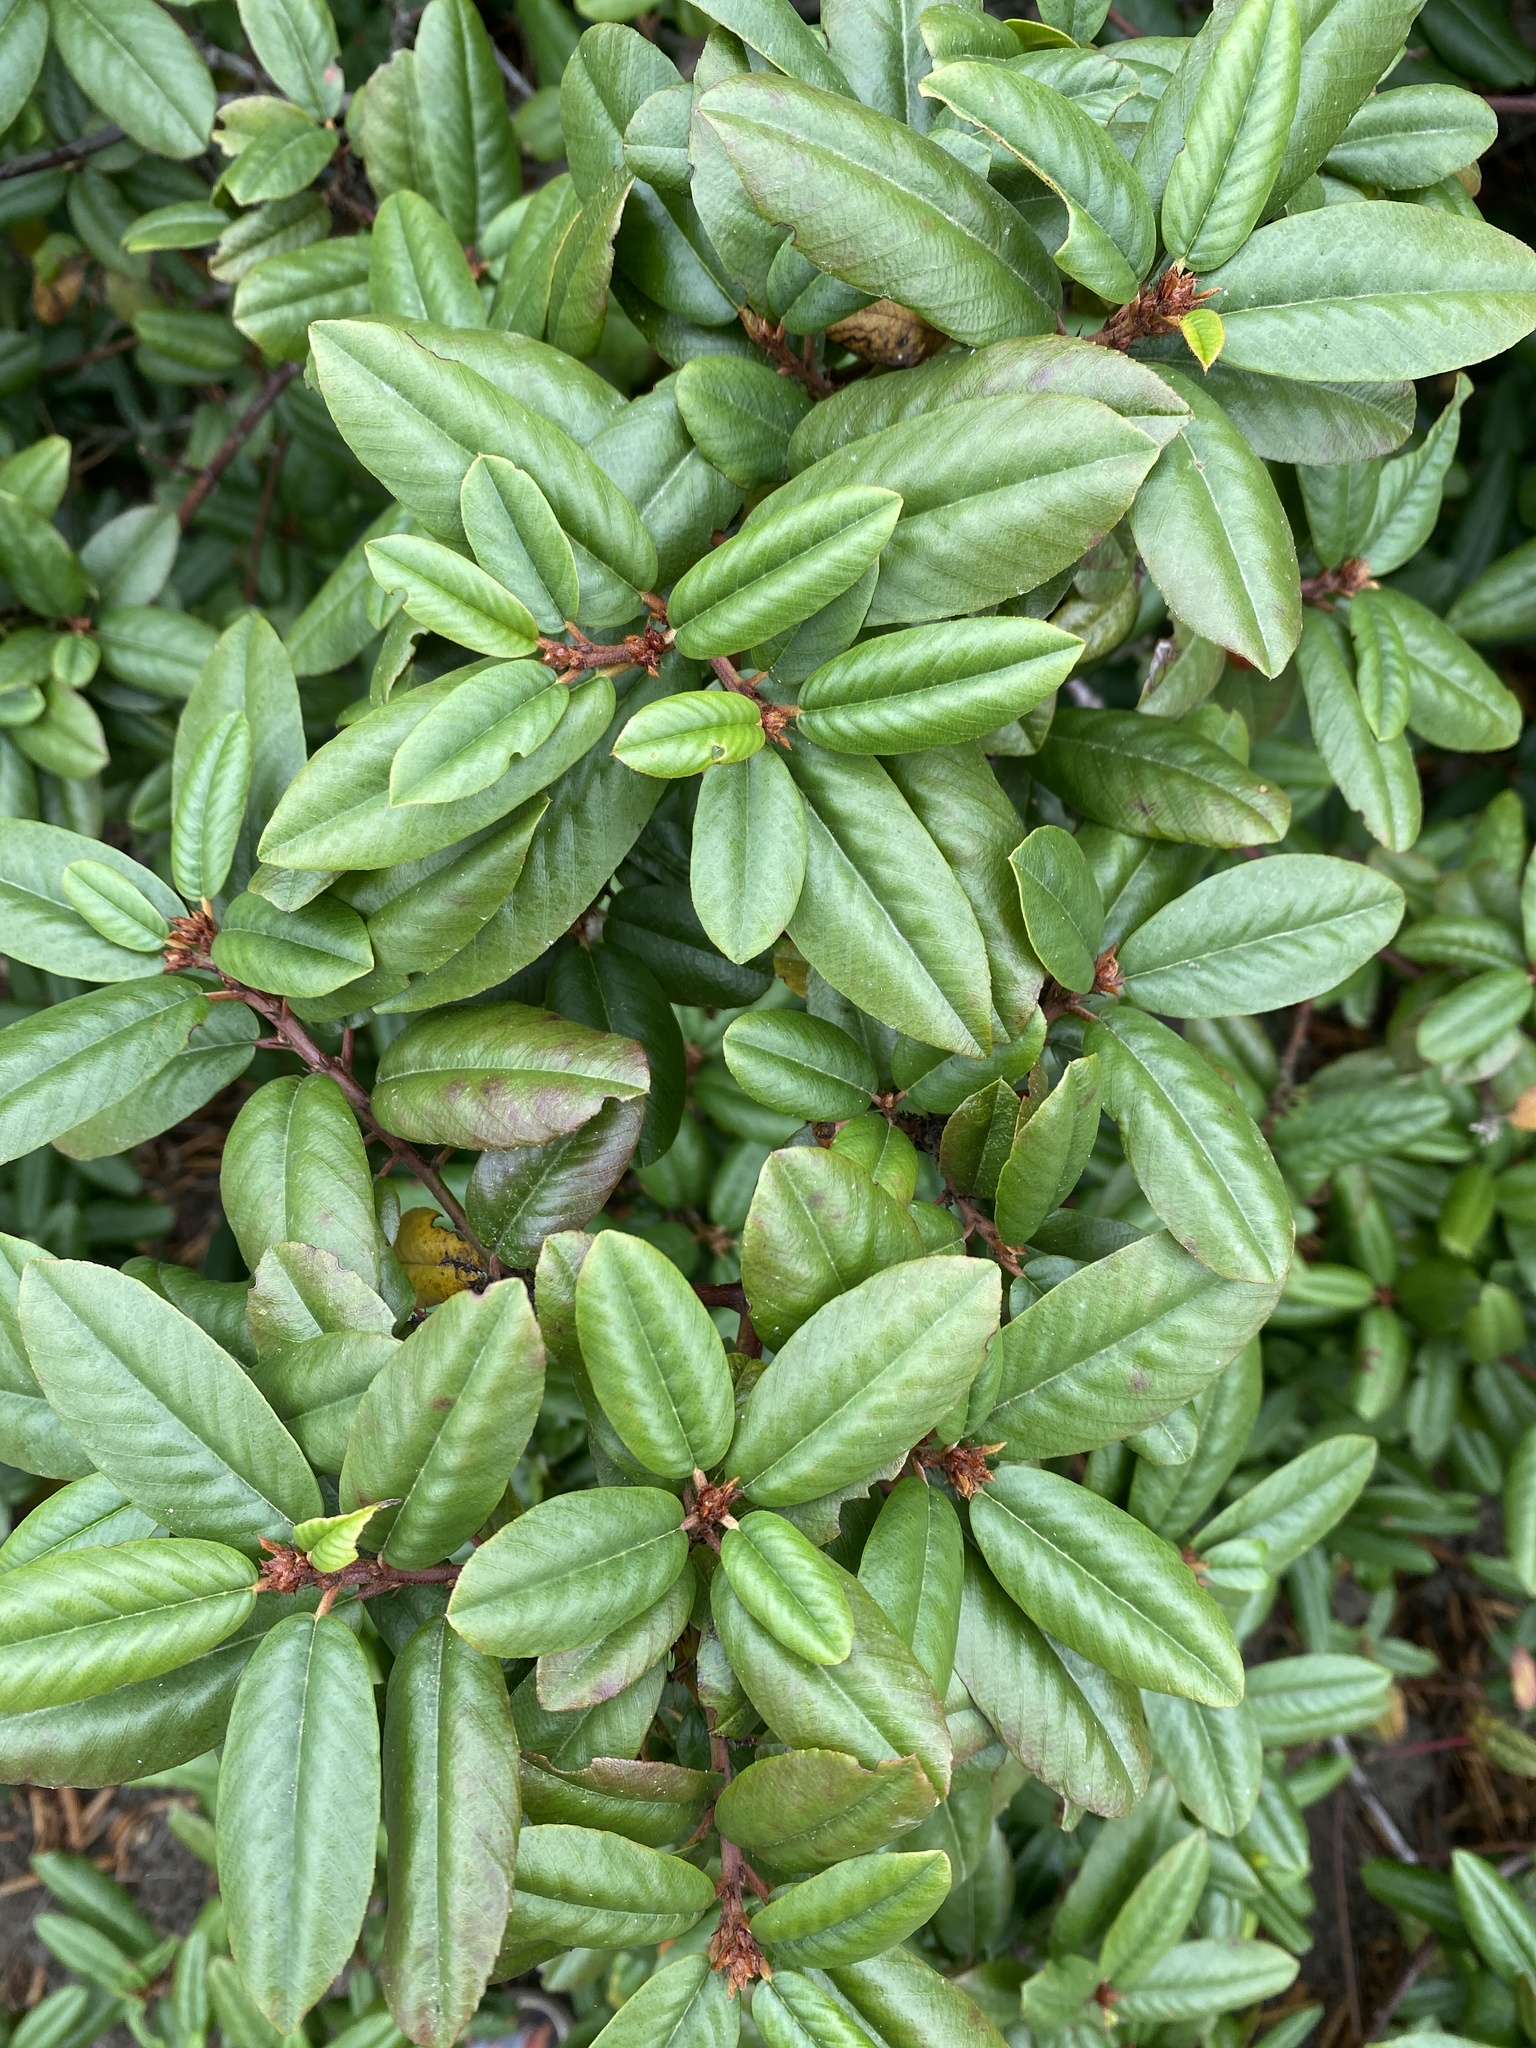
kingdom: Plantae
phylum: Tracheophyta
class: Magnoliopsida
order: Rosales
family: Rhamnaceae
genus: Frangula
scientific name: Frangula californica
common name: California buckthorn
